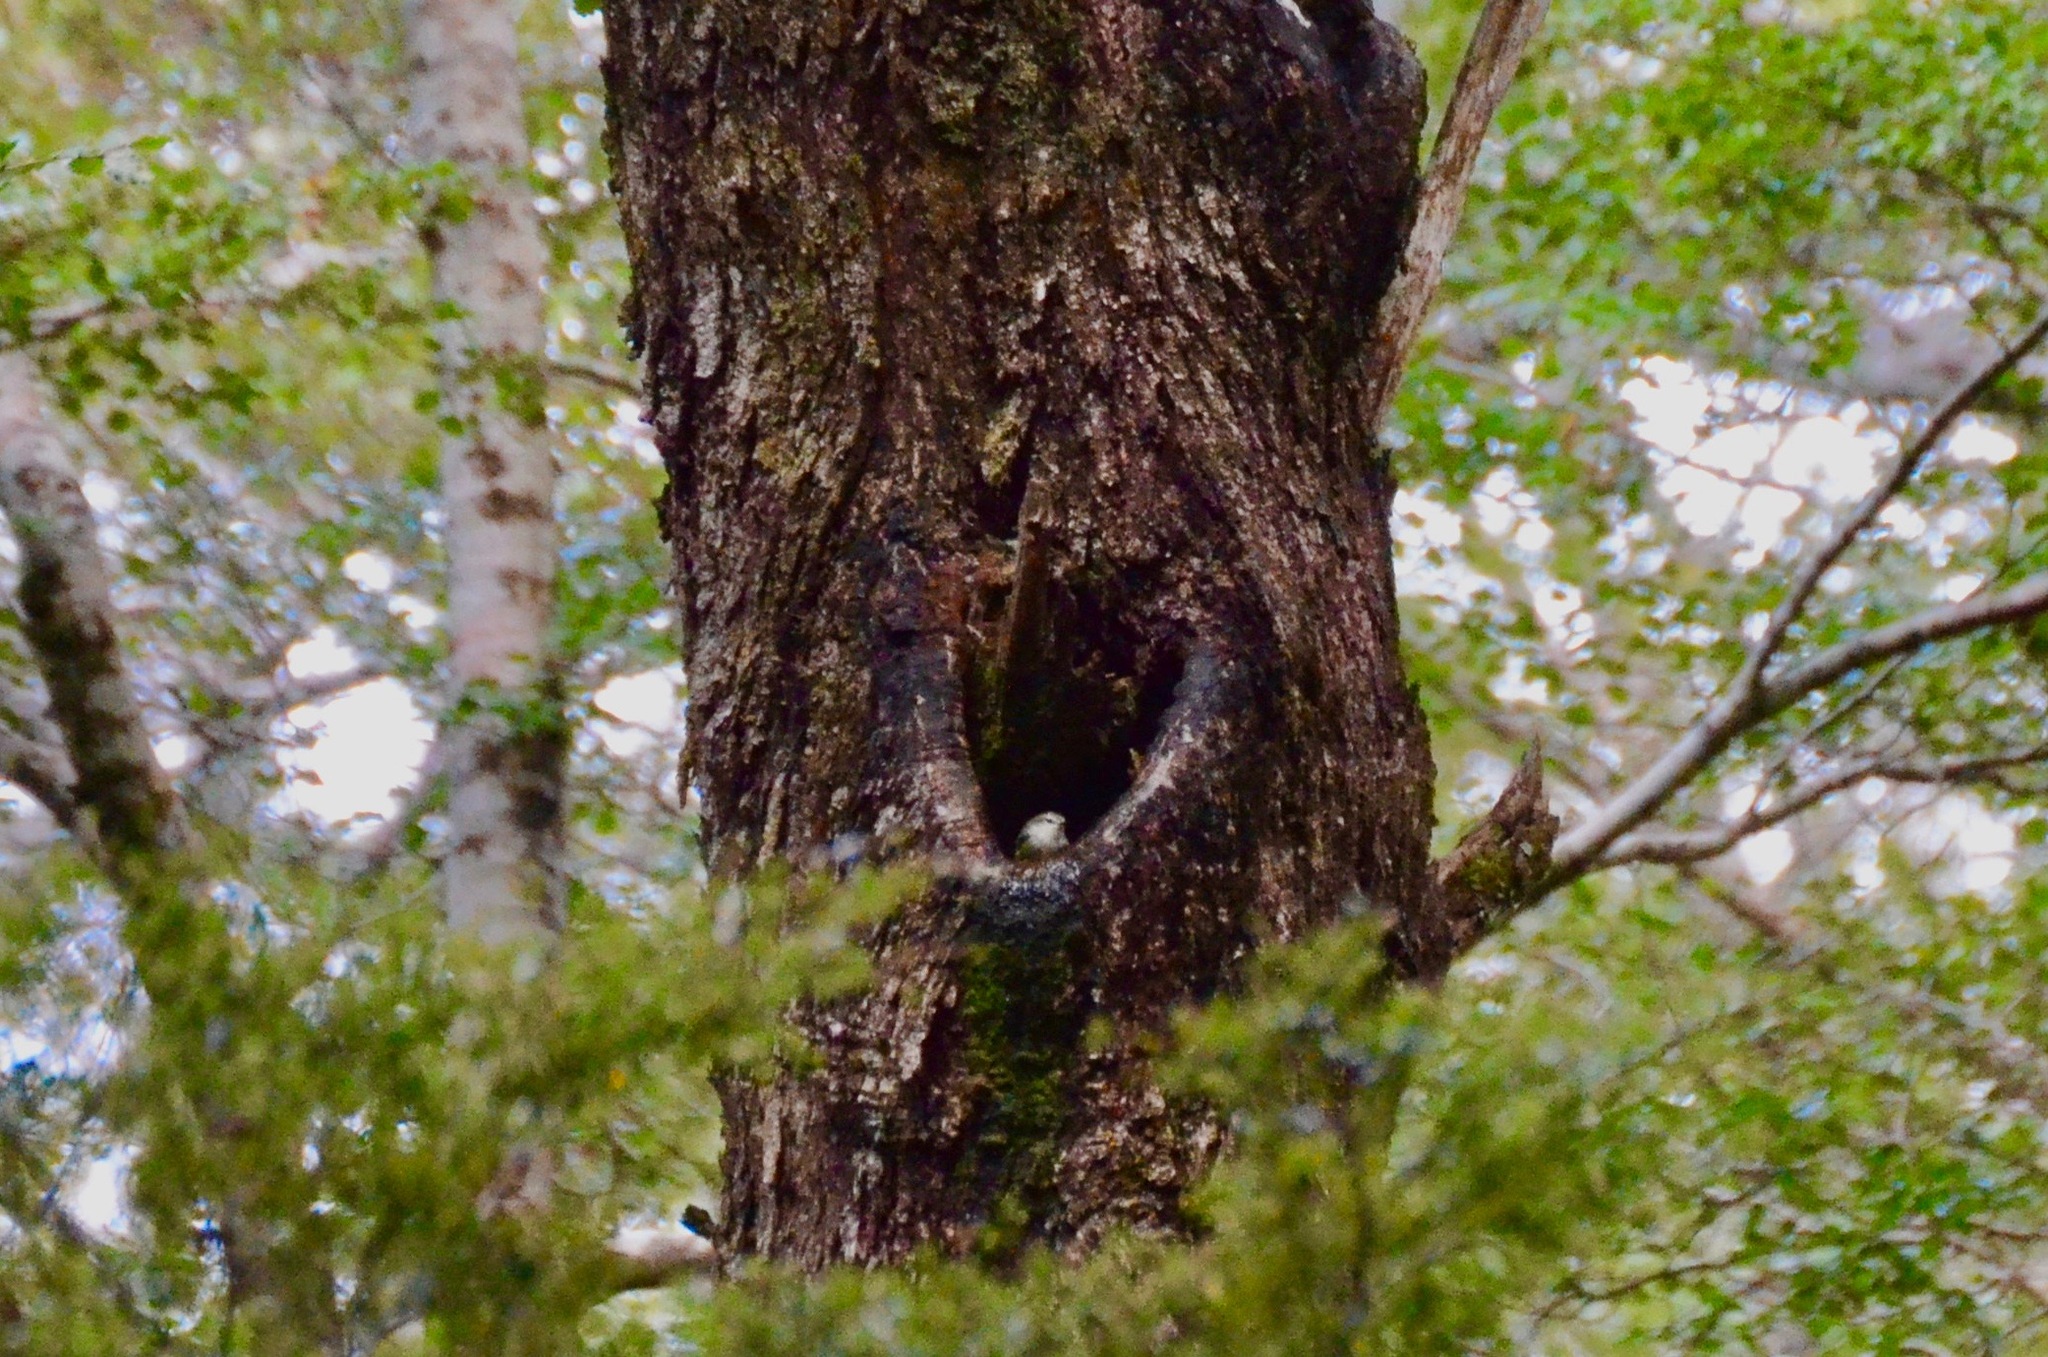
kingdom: Animalia
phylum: Chordata
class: Aves
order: Passeriformes
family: Acanthisittidae
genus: Acanthisitta
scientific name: Acanthisitta chloris
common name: Rifleman
